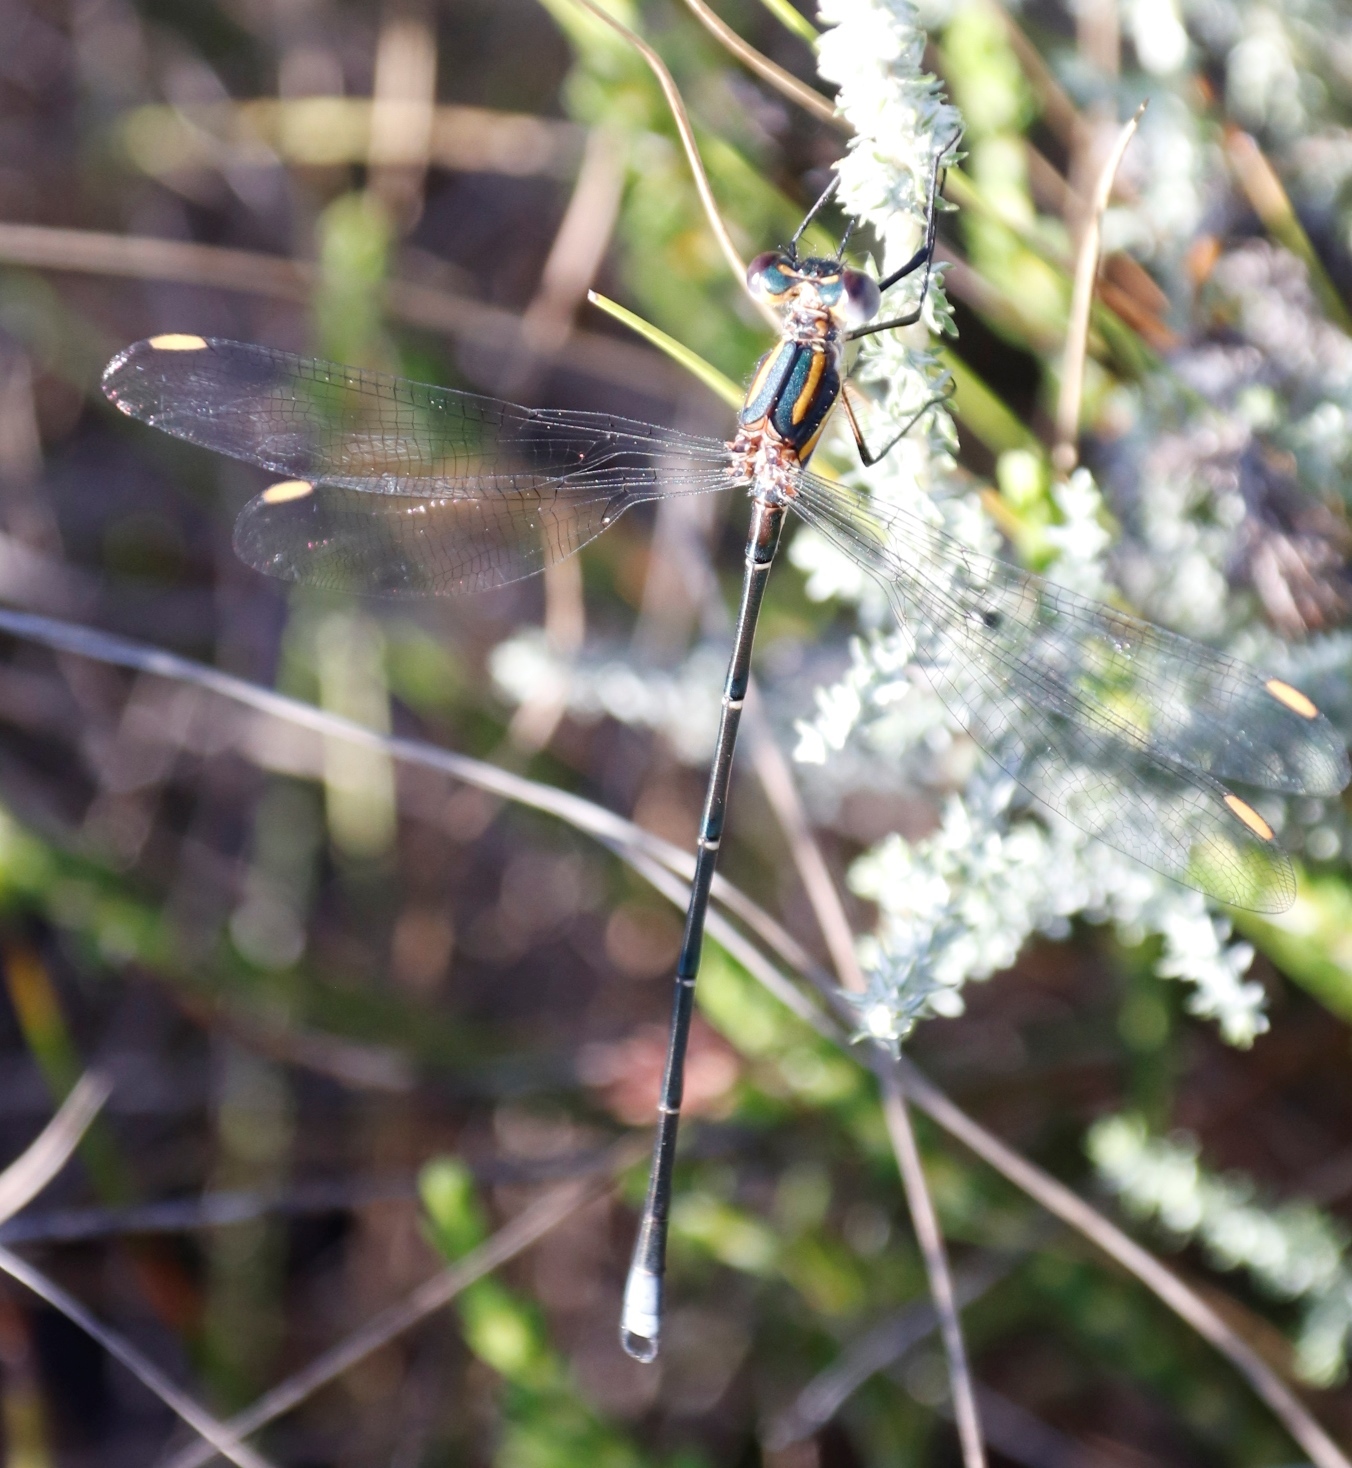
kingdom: Animalia
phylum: Arthropoda
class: Insecta
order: Odonata
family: Synlestidae
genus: Chlorolestes
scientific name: Chlorolestes conspicuus
